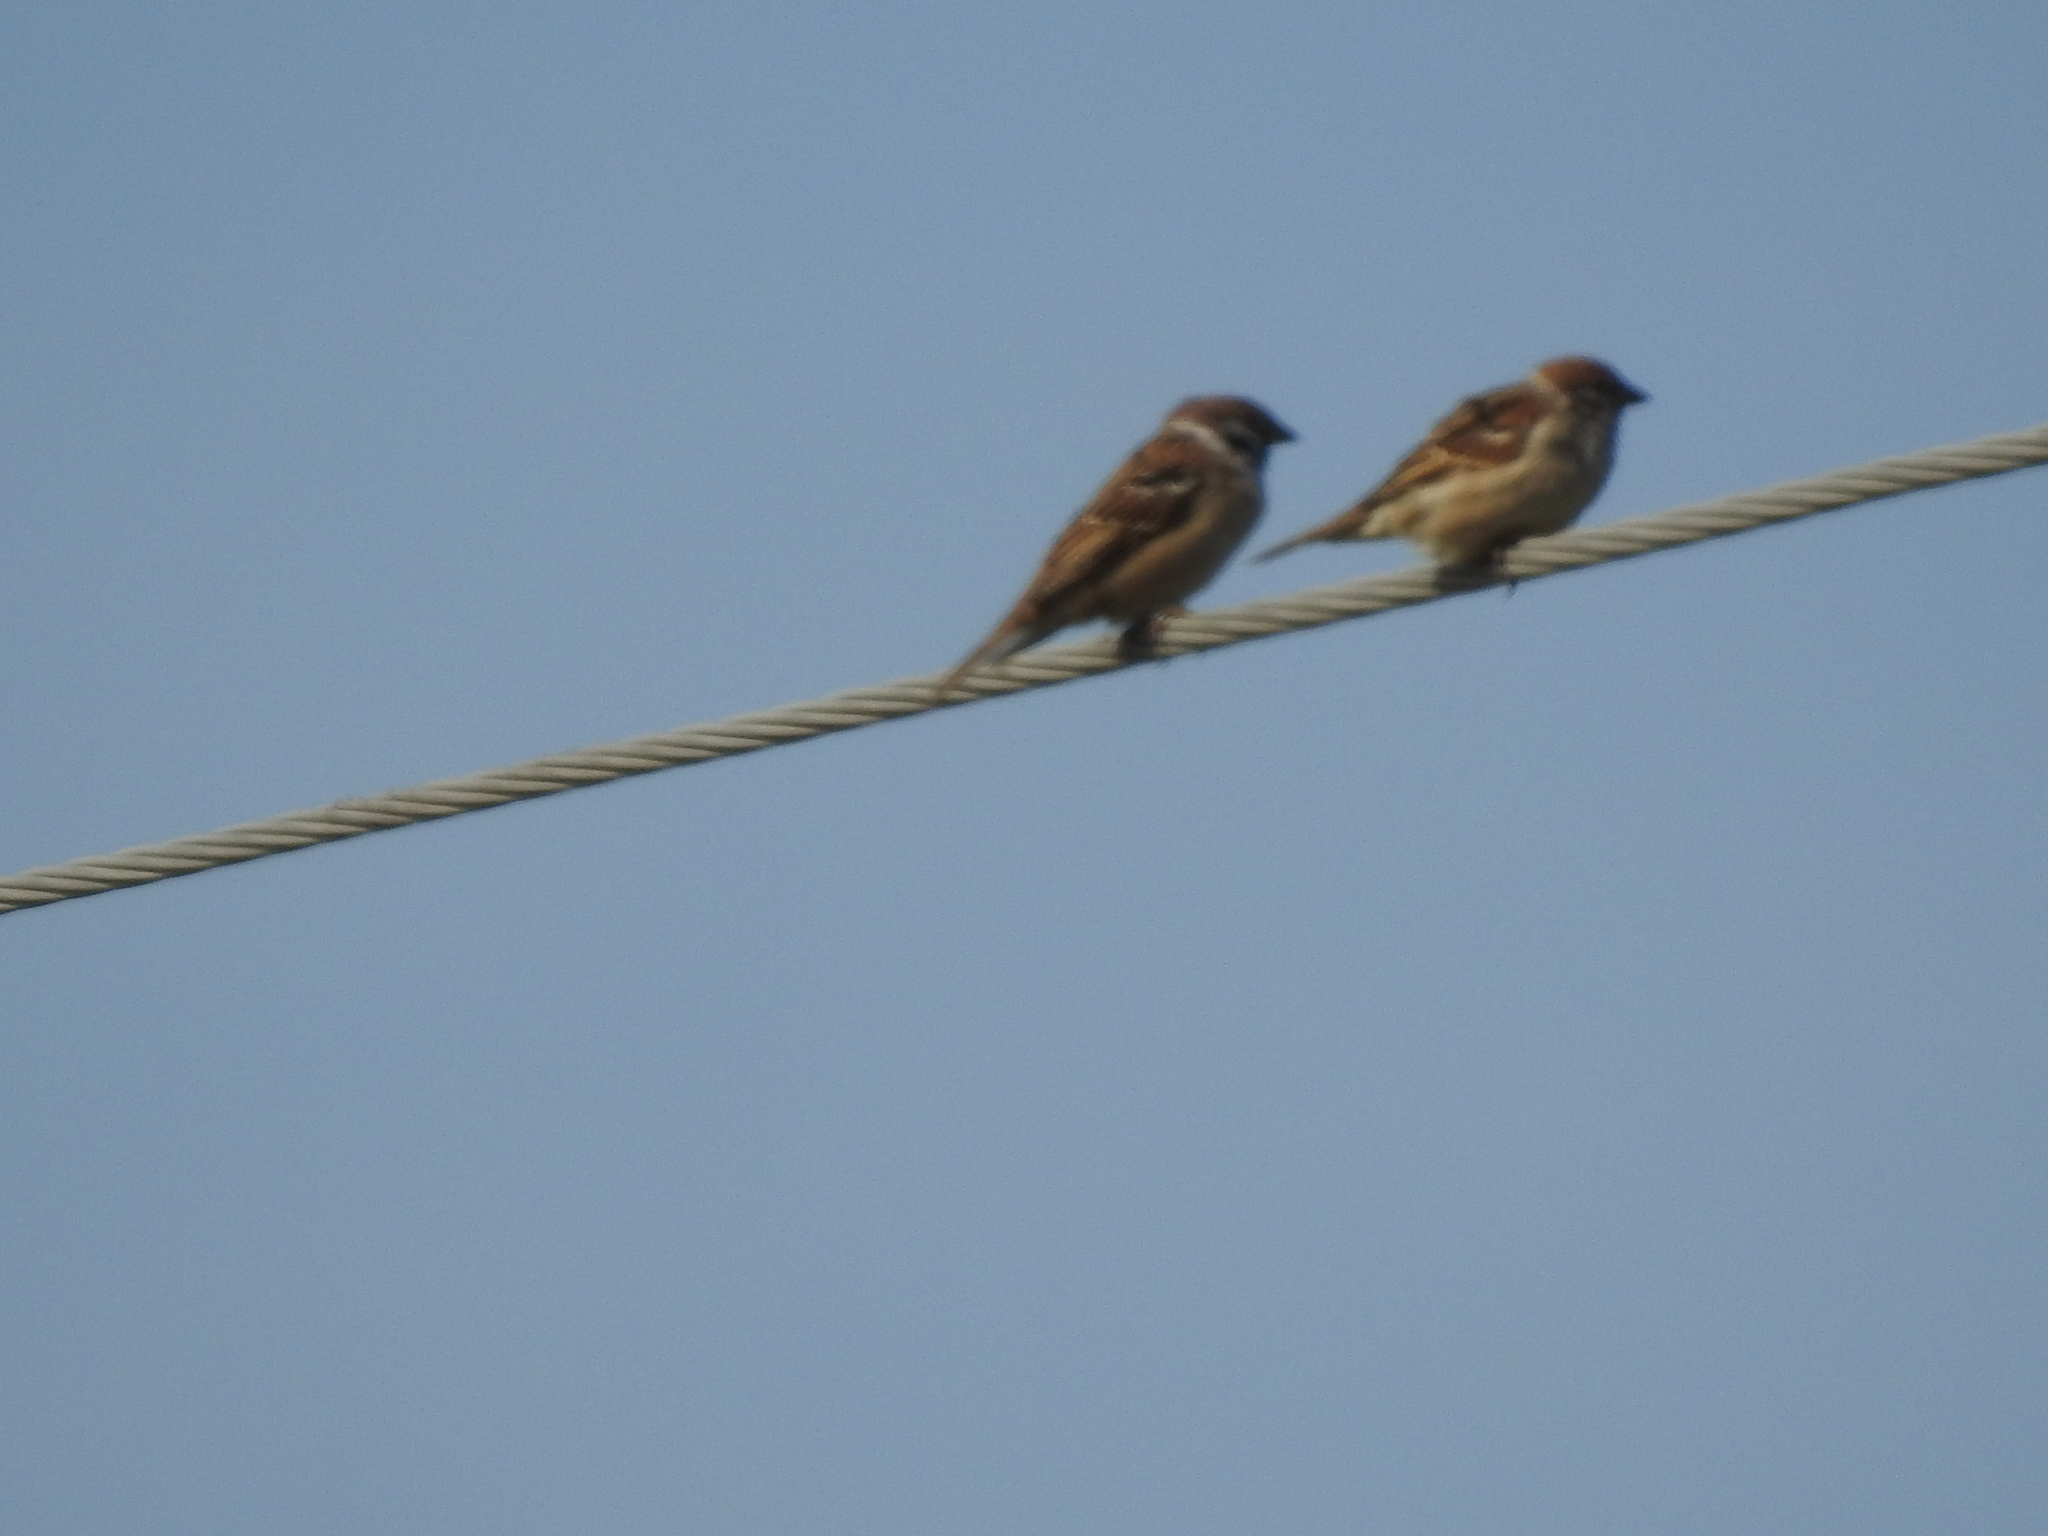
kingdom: Animalia
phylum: Chordata
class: Aves
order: Passeriformes
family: Passeridae
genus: Passer
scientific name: Passer montanus
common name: Eurasian tree sparrow
